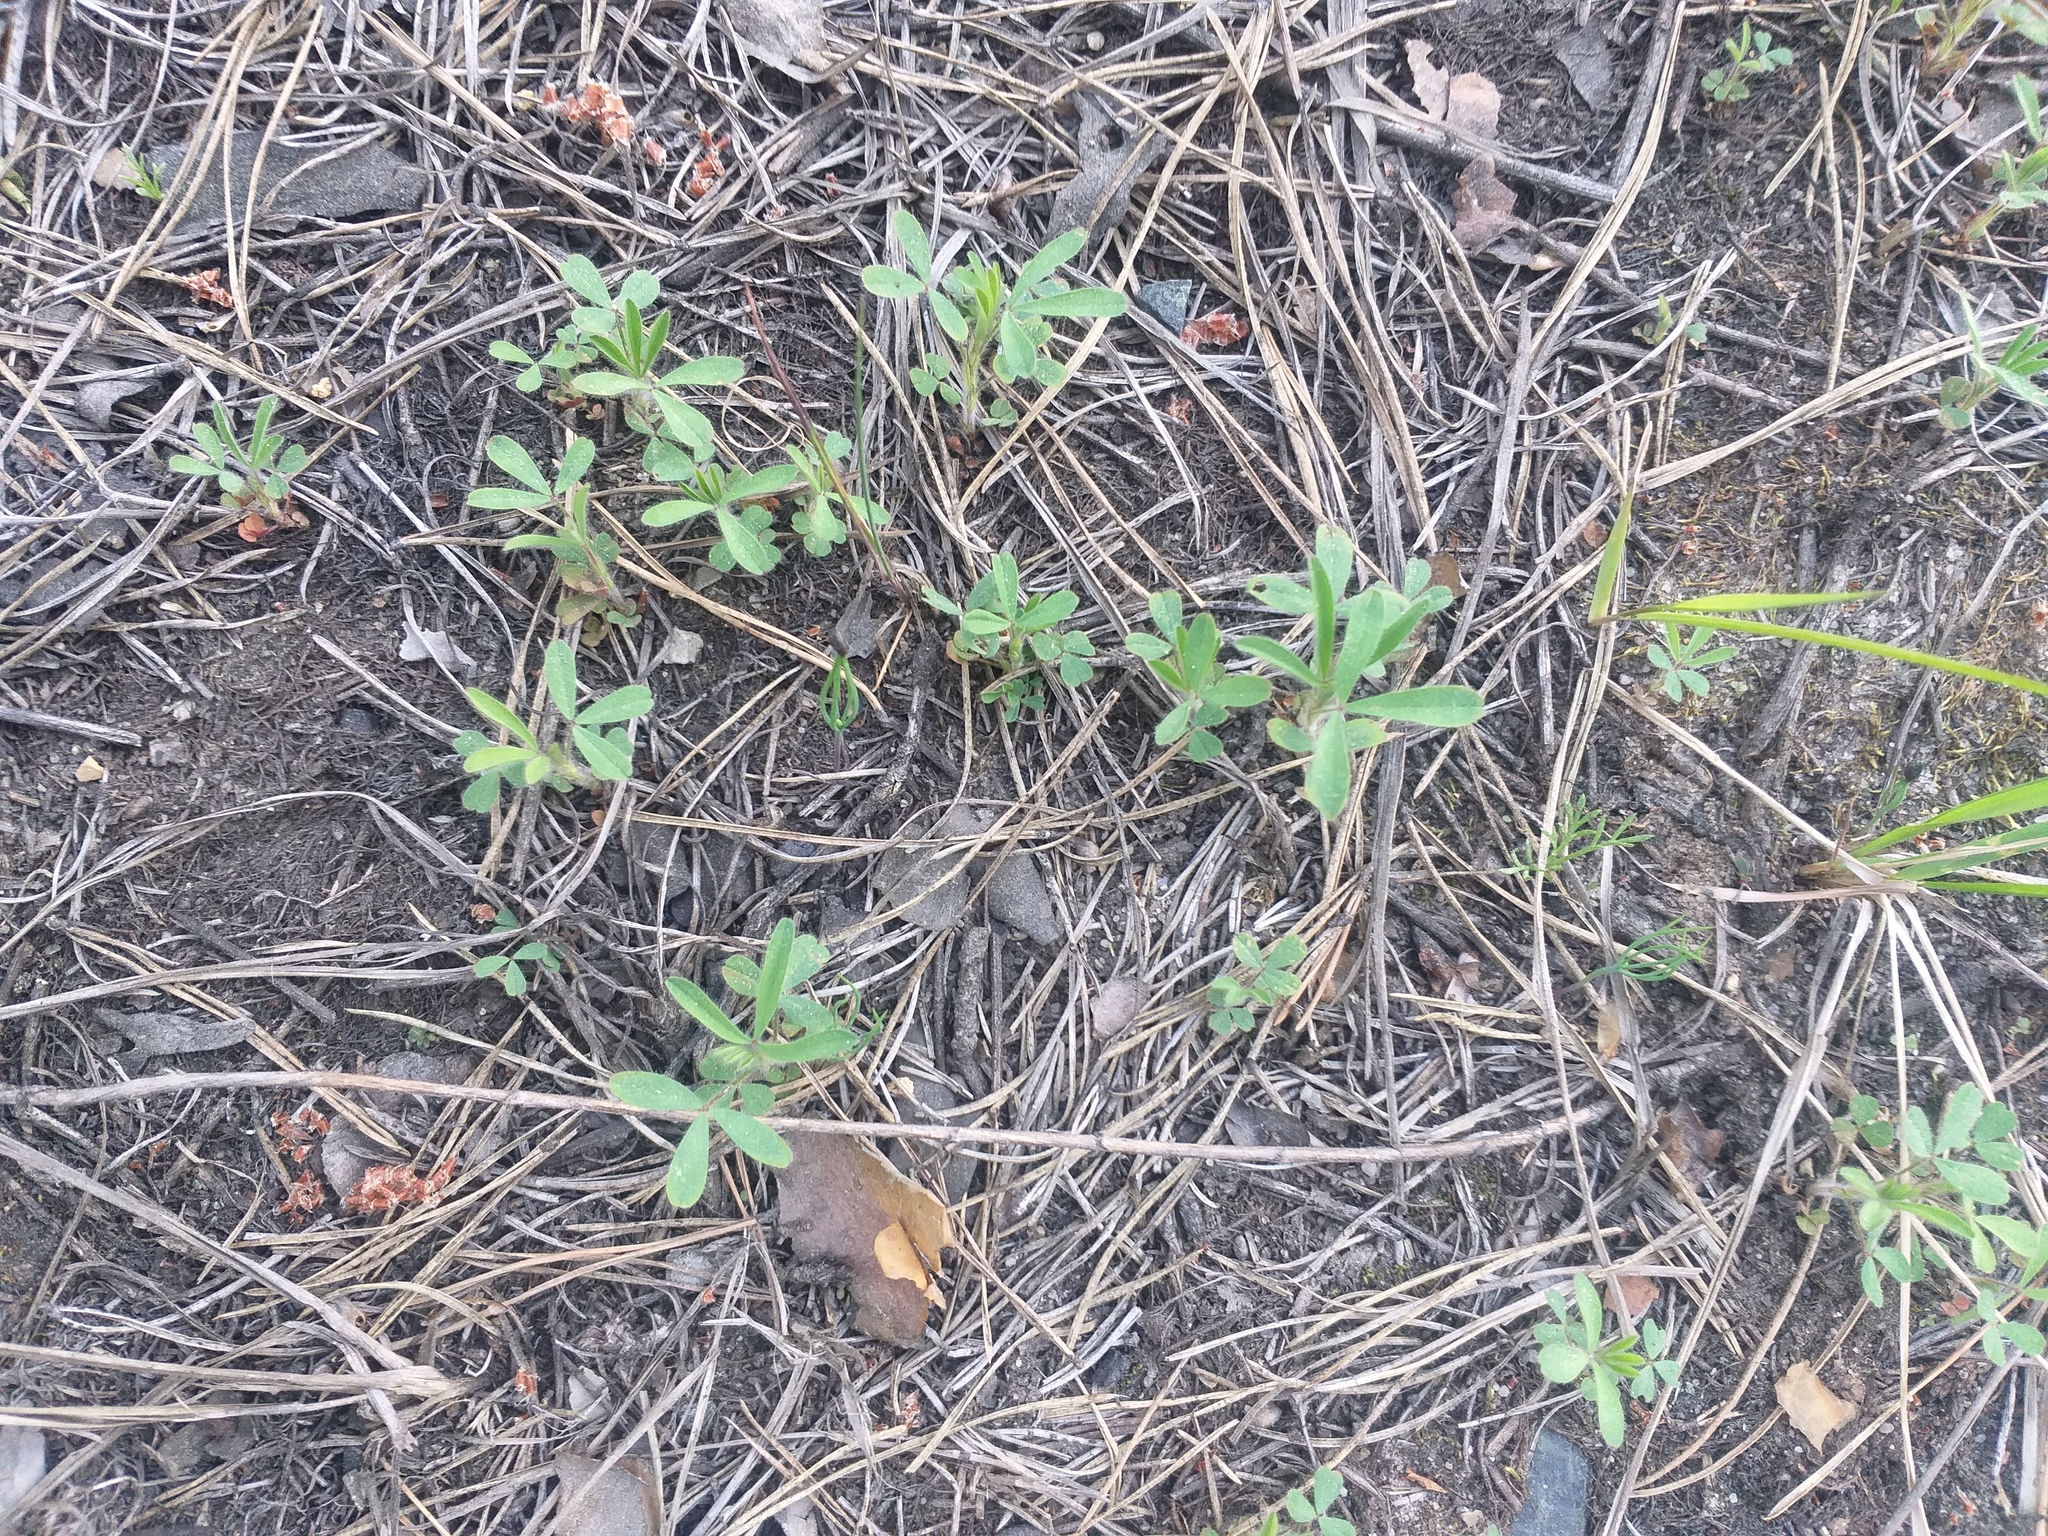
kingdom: Plantae
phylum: Tracheophyta
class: Magnoliopsida
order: Fabales
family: Fabaceae
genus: Trifolium
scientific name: Trifolium arvense
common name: Hare's-foot clover
